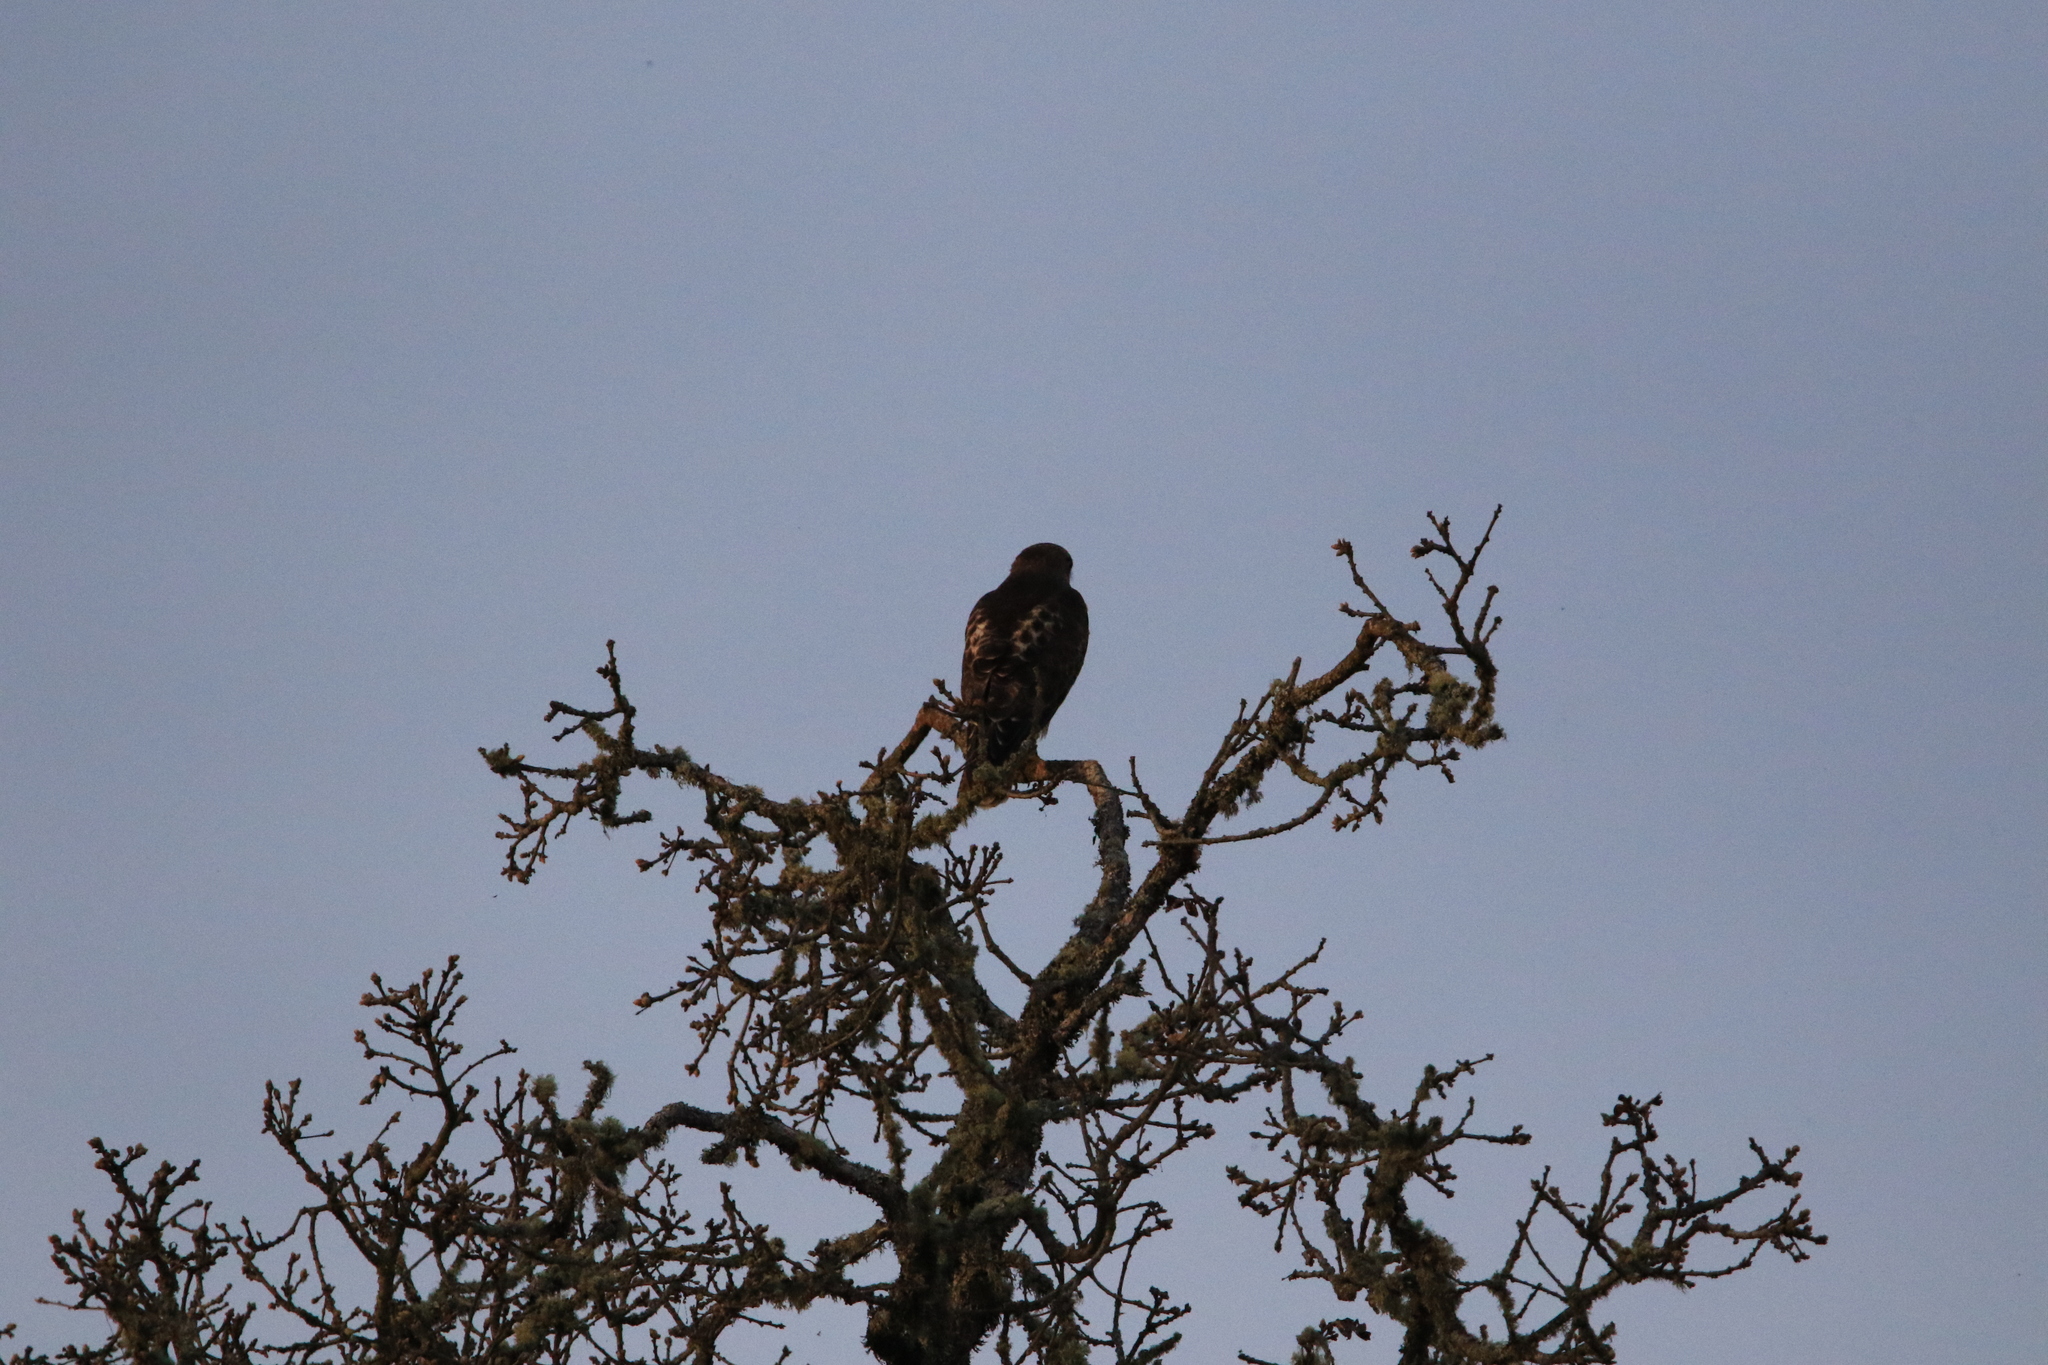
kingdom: Animalia
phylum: Chordata
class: Aves
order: Accipitriformes
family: Accipitridae
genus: Buteo
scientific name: Buteo jamaicensis
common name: Red-tailed hawk
